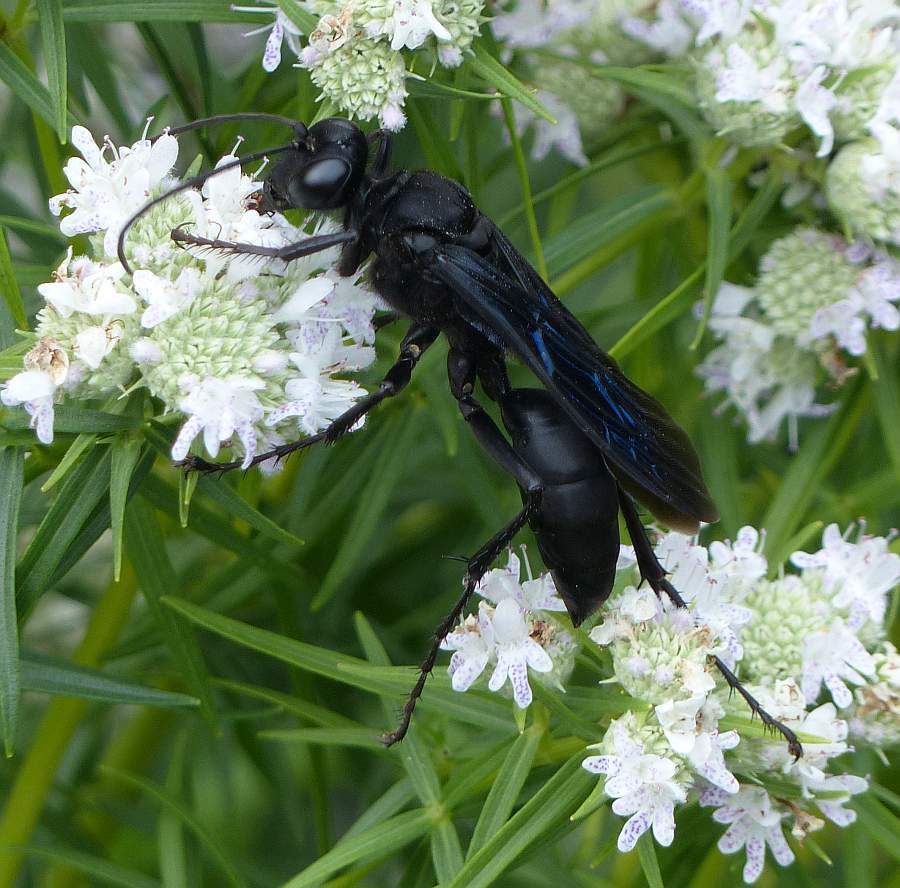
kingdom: Animalia
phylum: Arthropoda
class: Insecta
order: Hymenoptera
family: Sphecidae
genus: Sphex
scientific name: Sphex pensylvanicus
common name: Great black digger wasp
